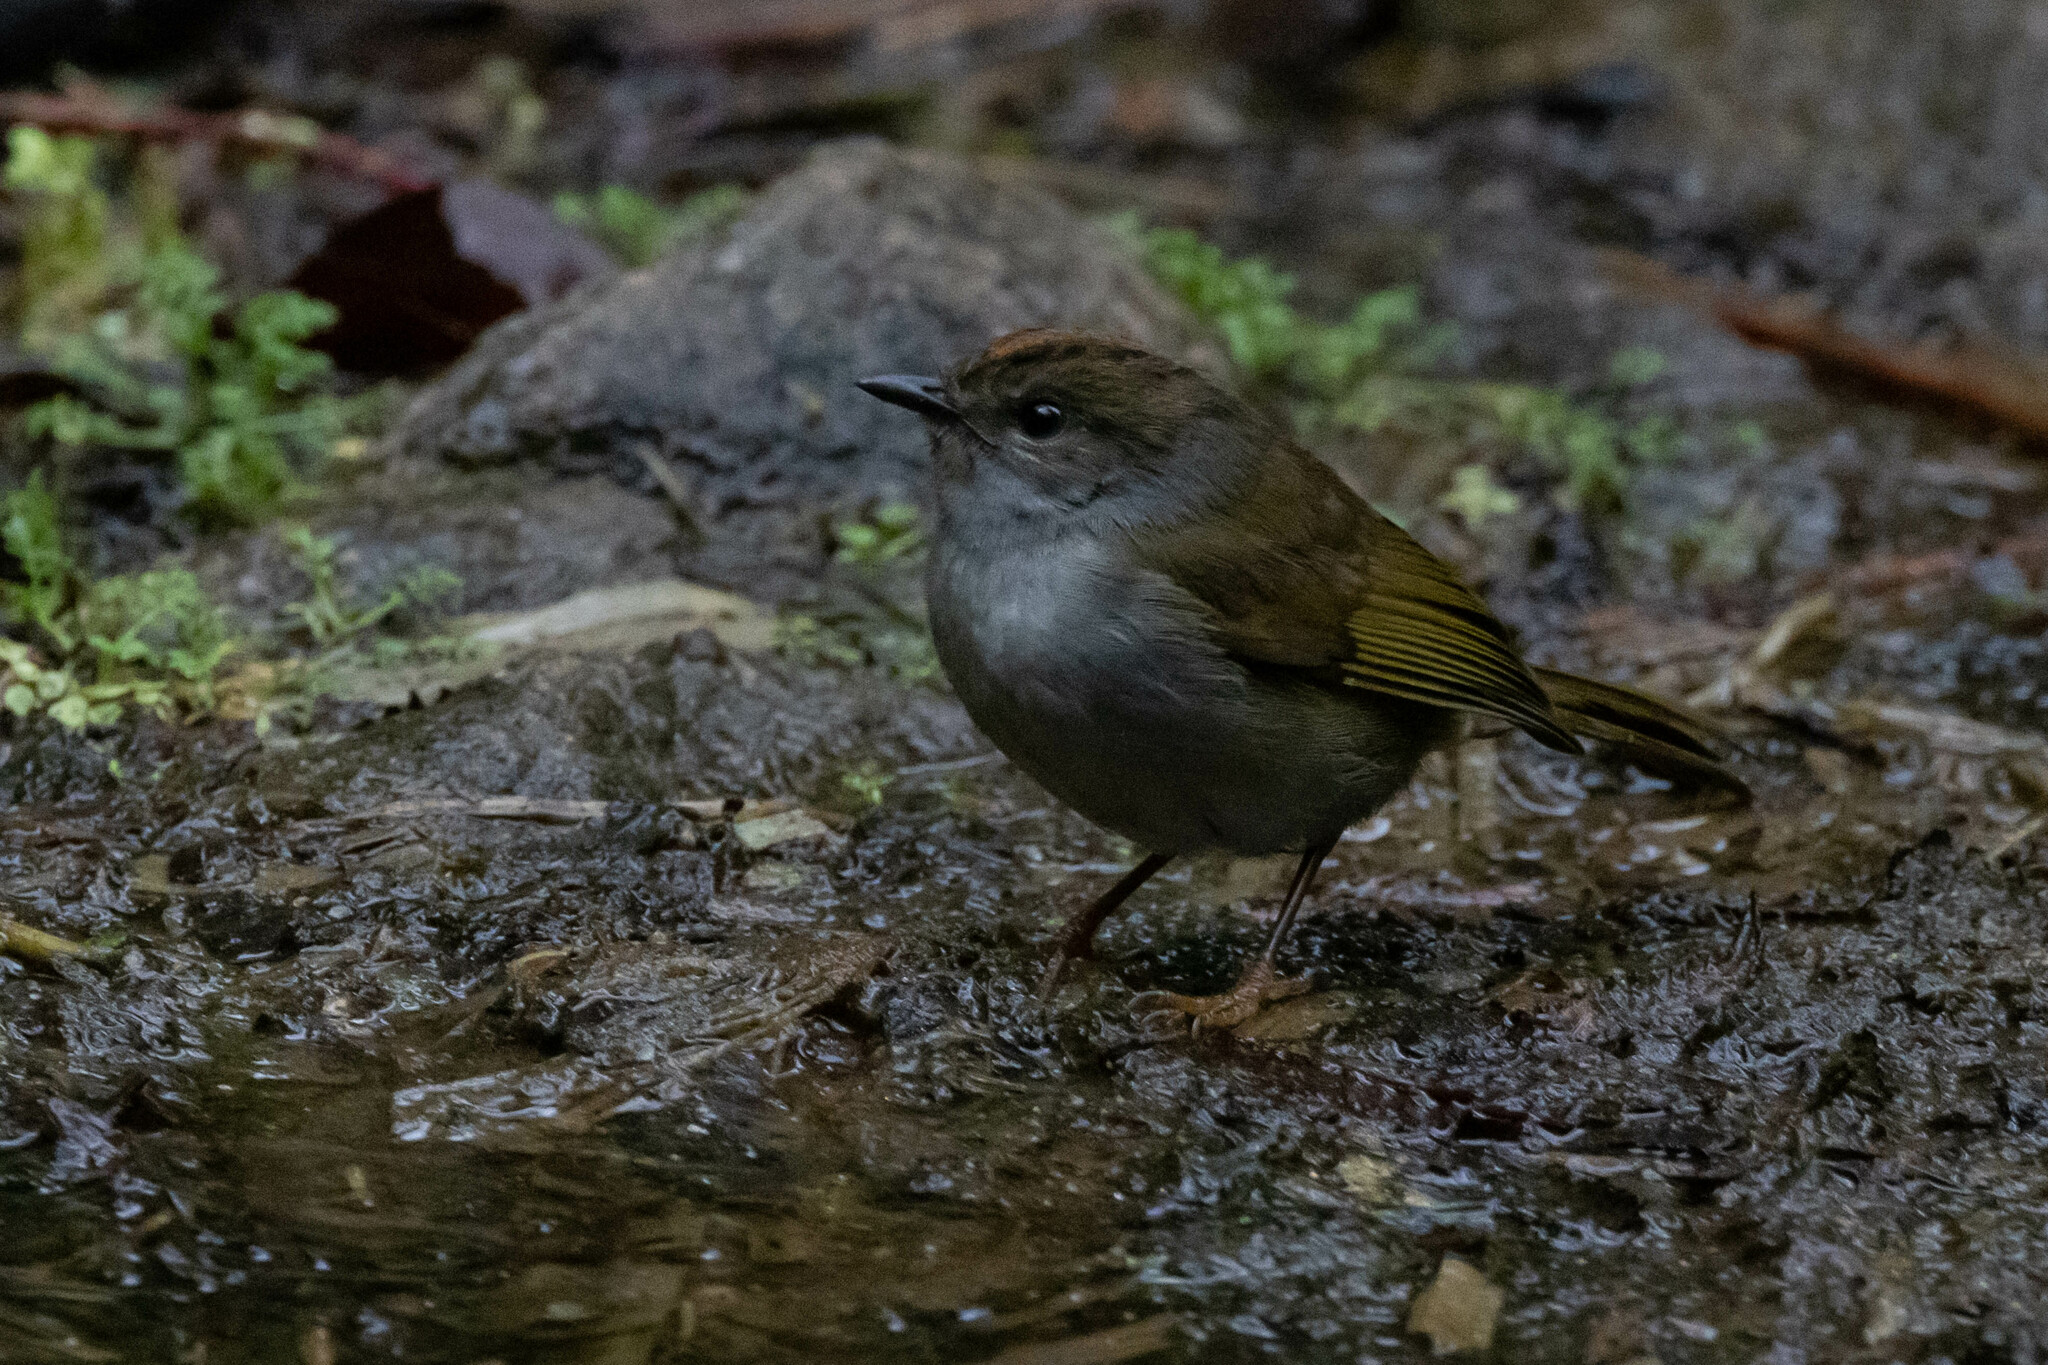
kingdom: Animalia
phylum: Chordata
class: Aves
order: Passeriformes
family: Parulidae
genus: Myiothlypis
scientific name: Myiothlypis coronata
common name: Russet-crowned warbler
